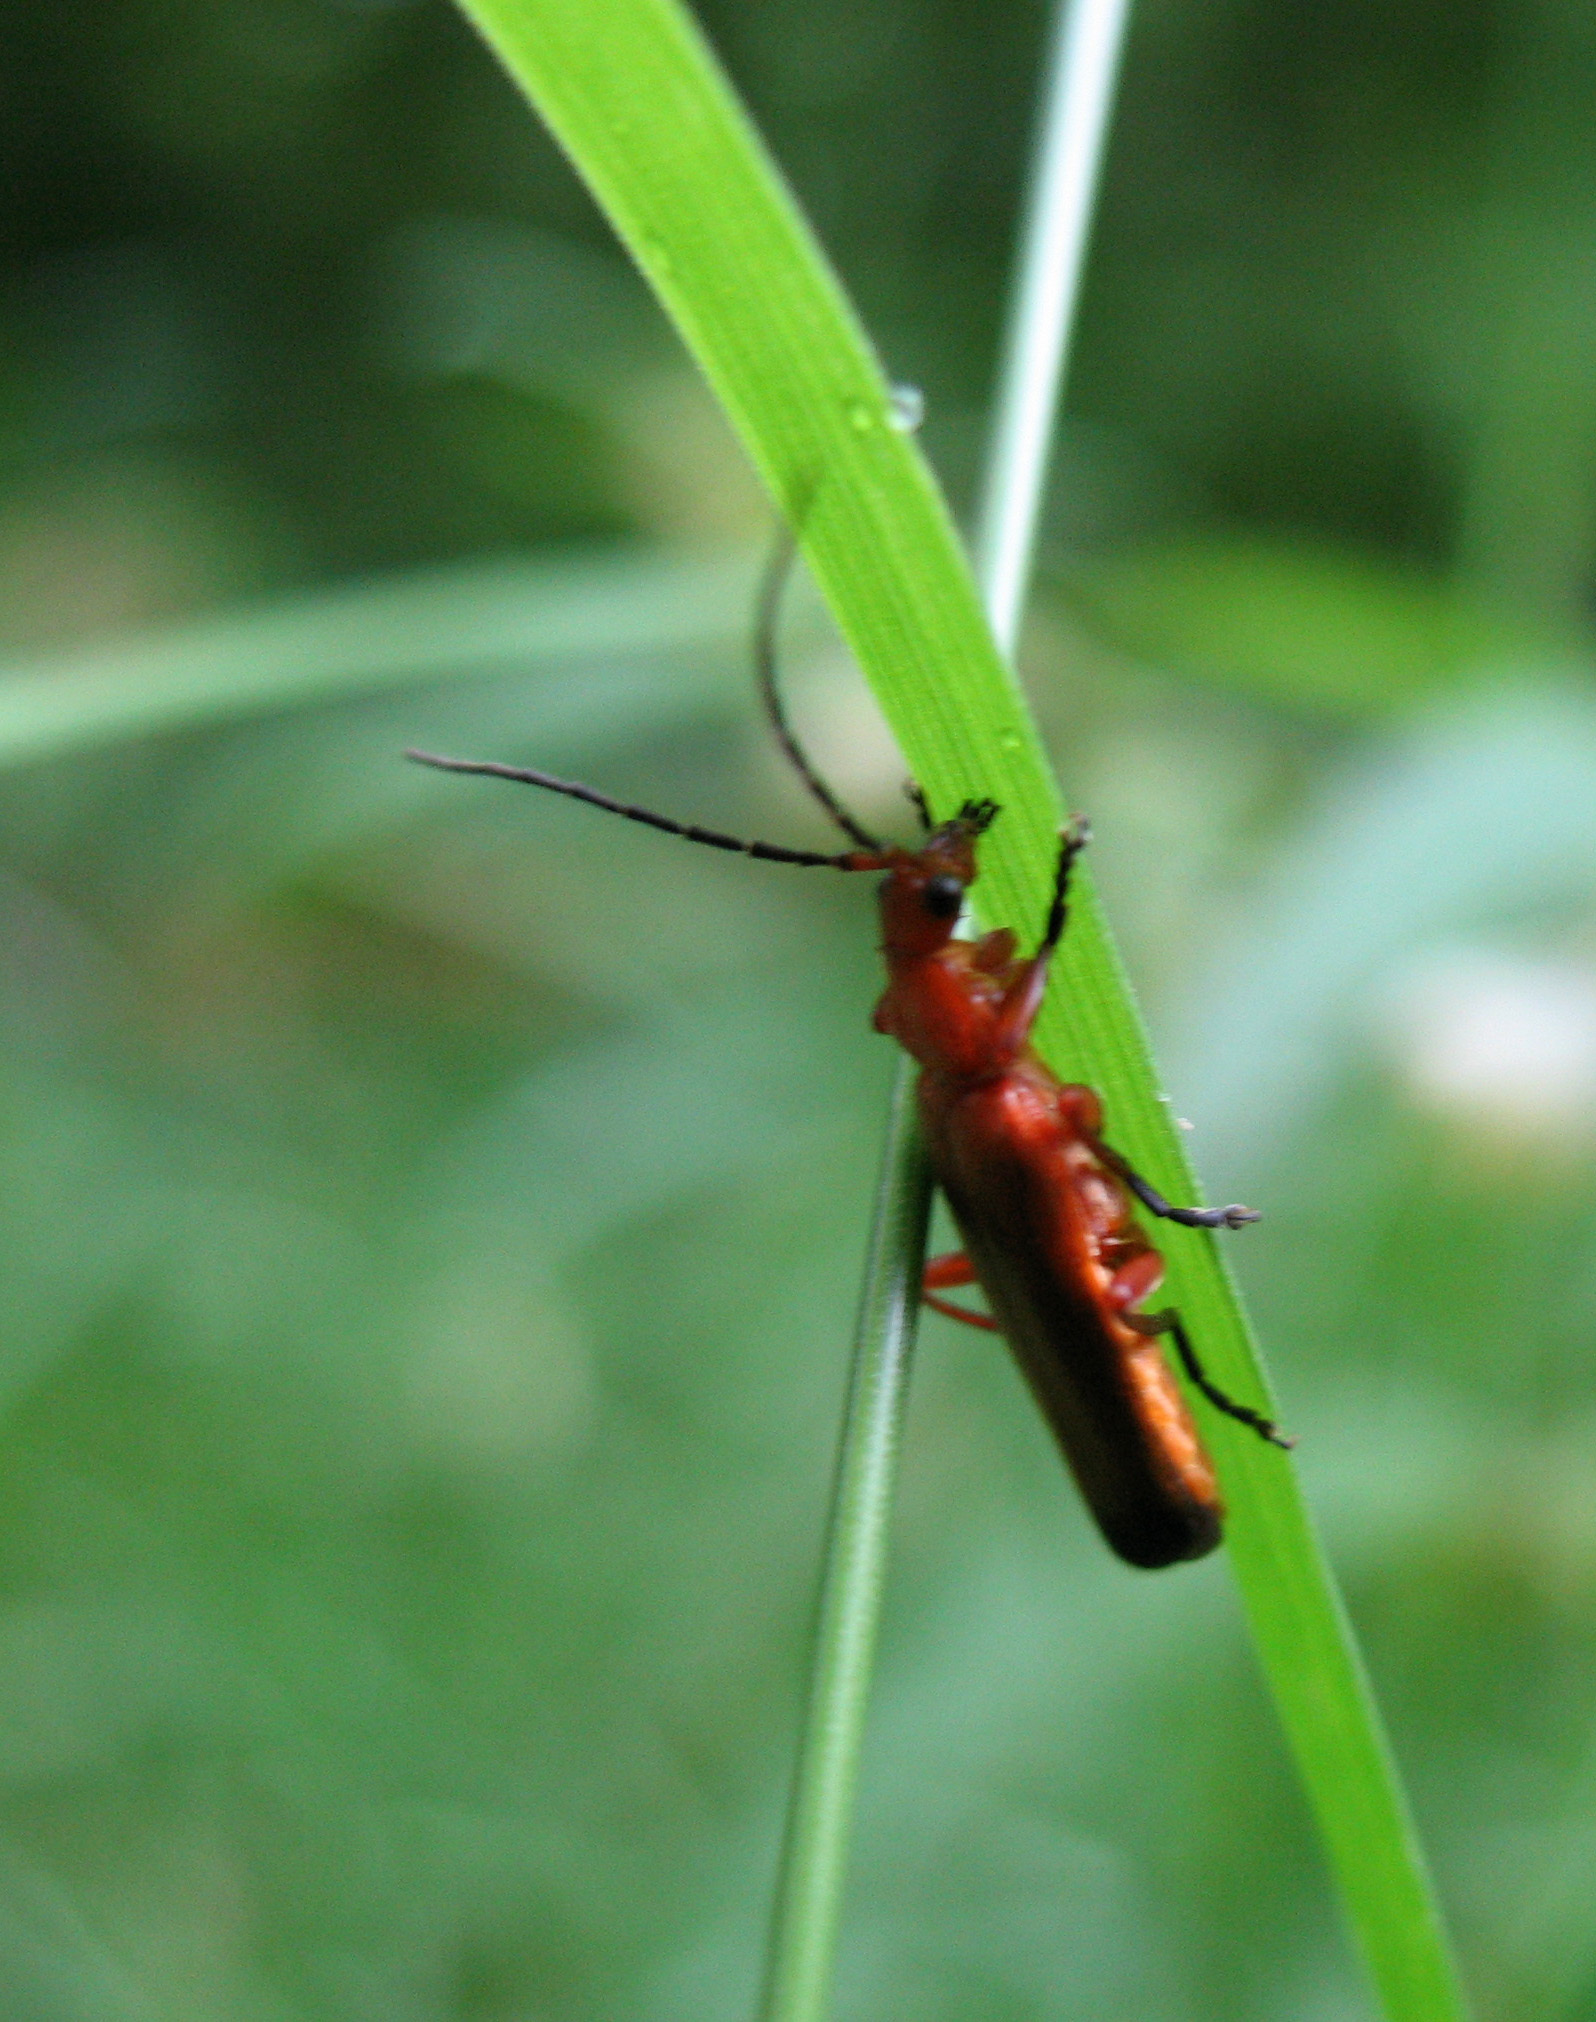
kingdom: Animalia
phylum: Arthropoda
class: Insecta
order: Coleoptera
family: Cantharidae
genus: Rhagonycha
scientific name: Rhagonycha fulva
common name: Common red soldier beetle
